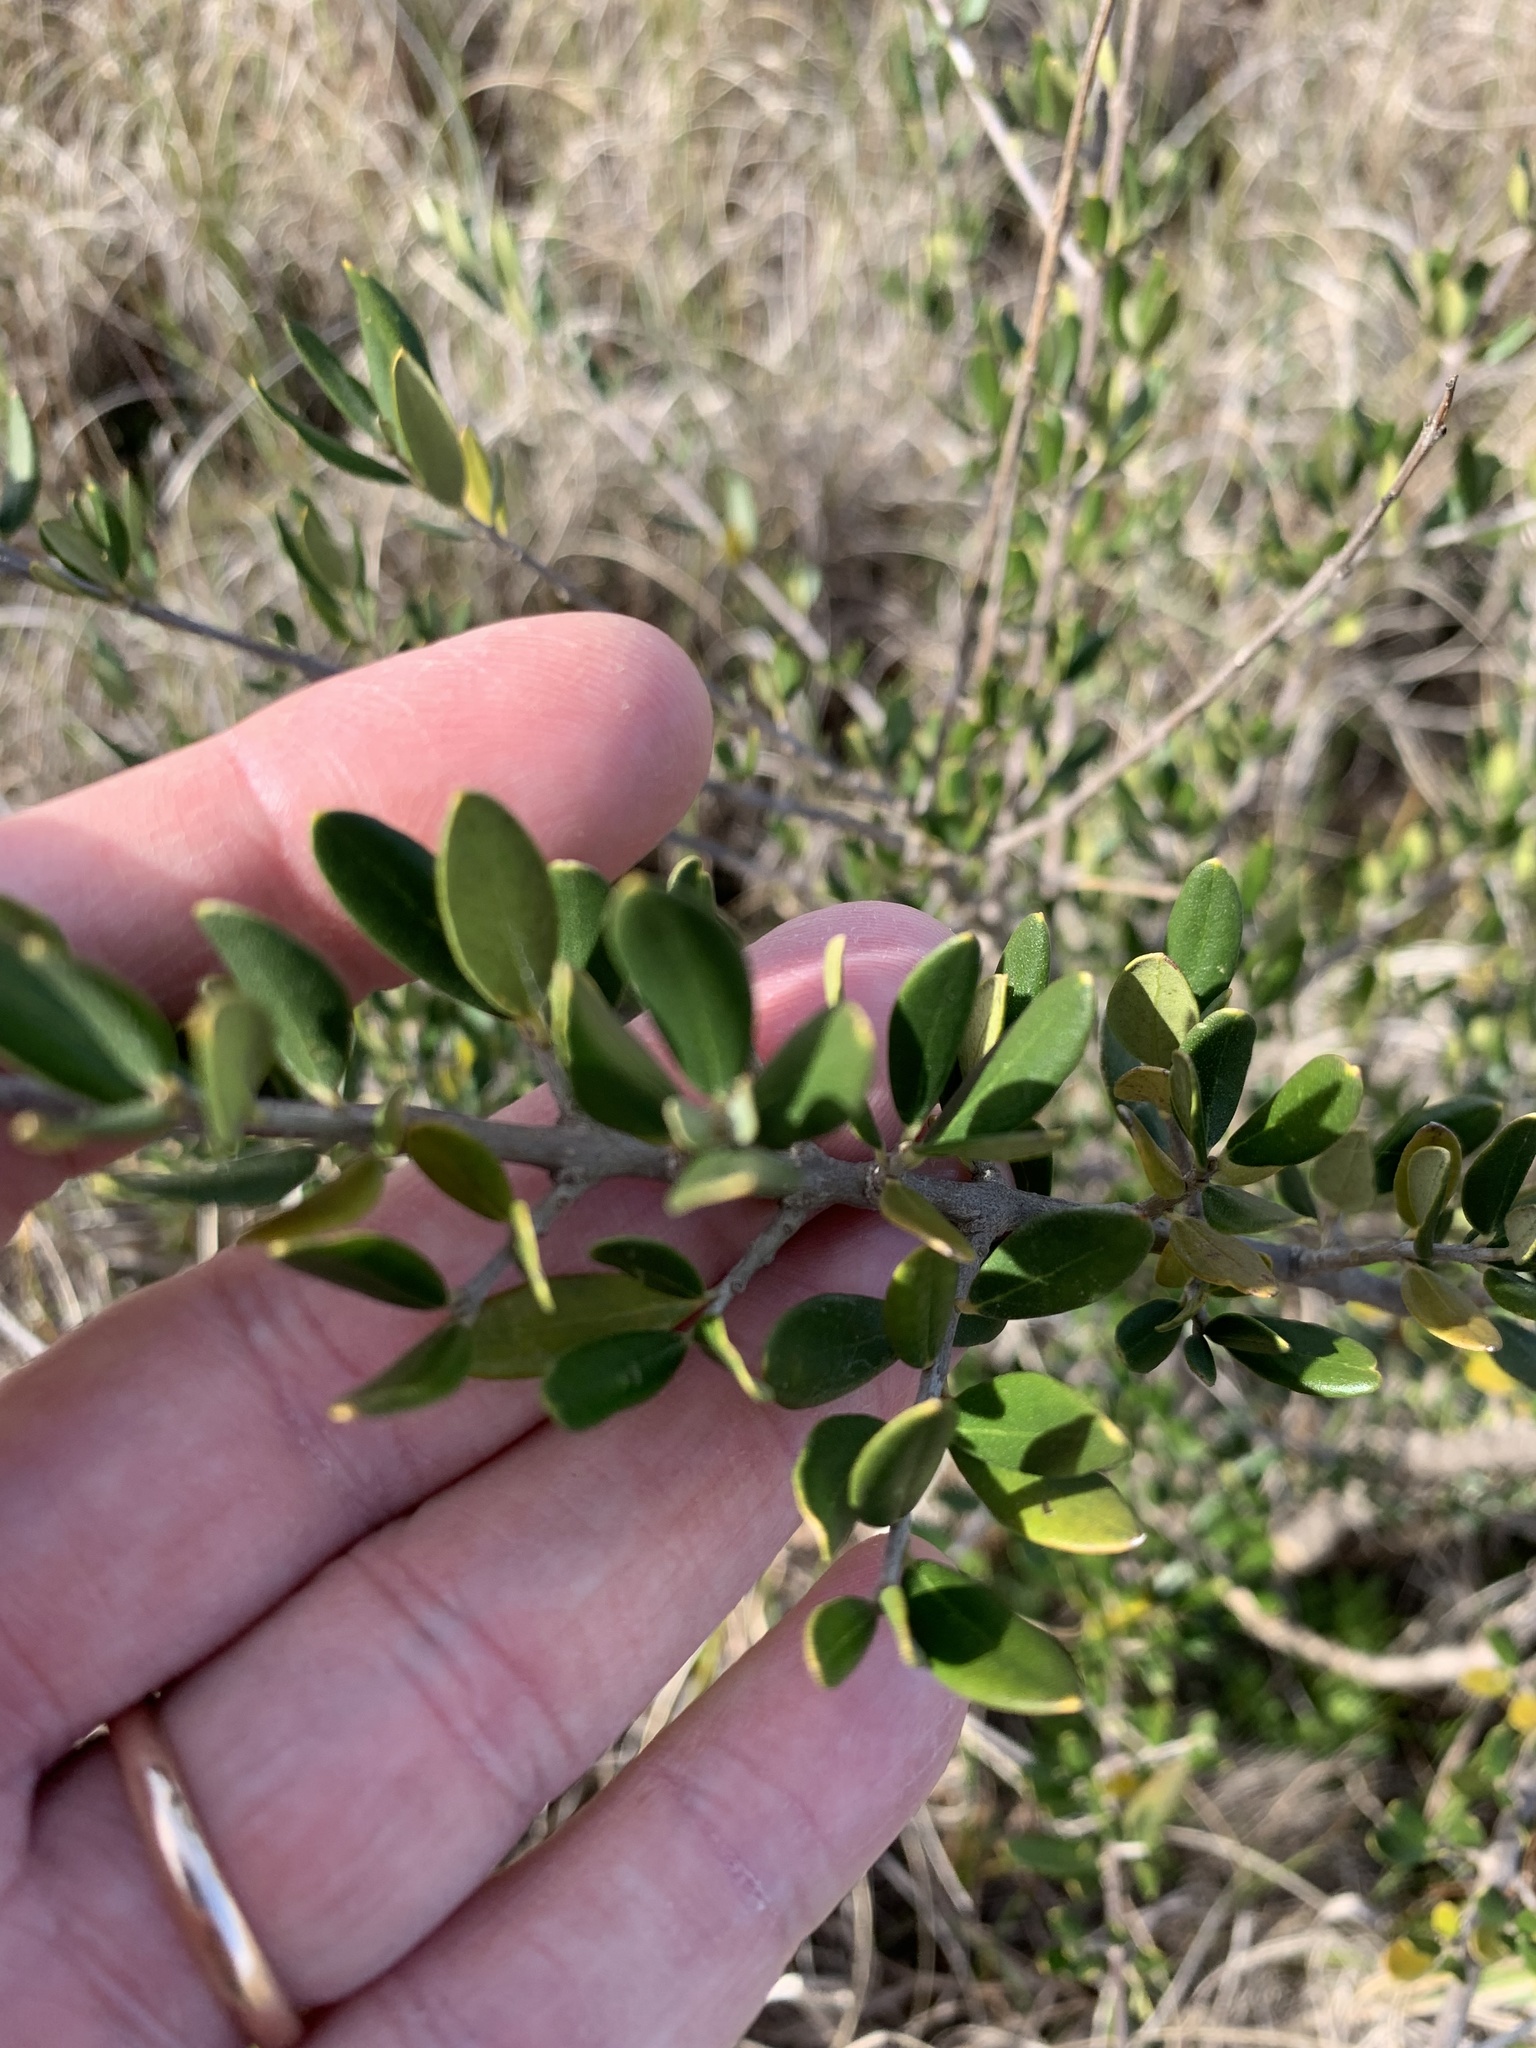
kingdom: Plantae
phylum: Tracheophyta
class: Magnoliopsida
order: Lamiales
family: Oleaceae
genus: Olea
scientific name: Olea europaea
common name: Olive
